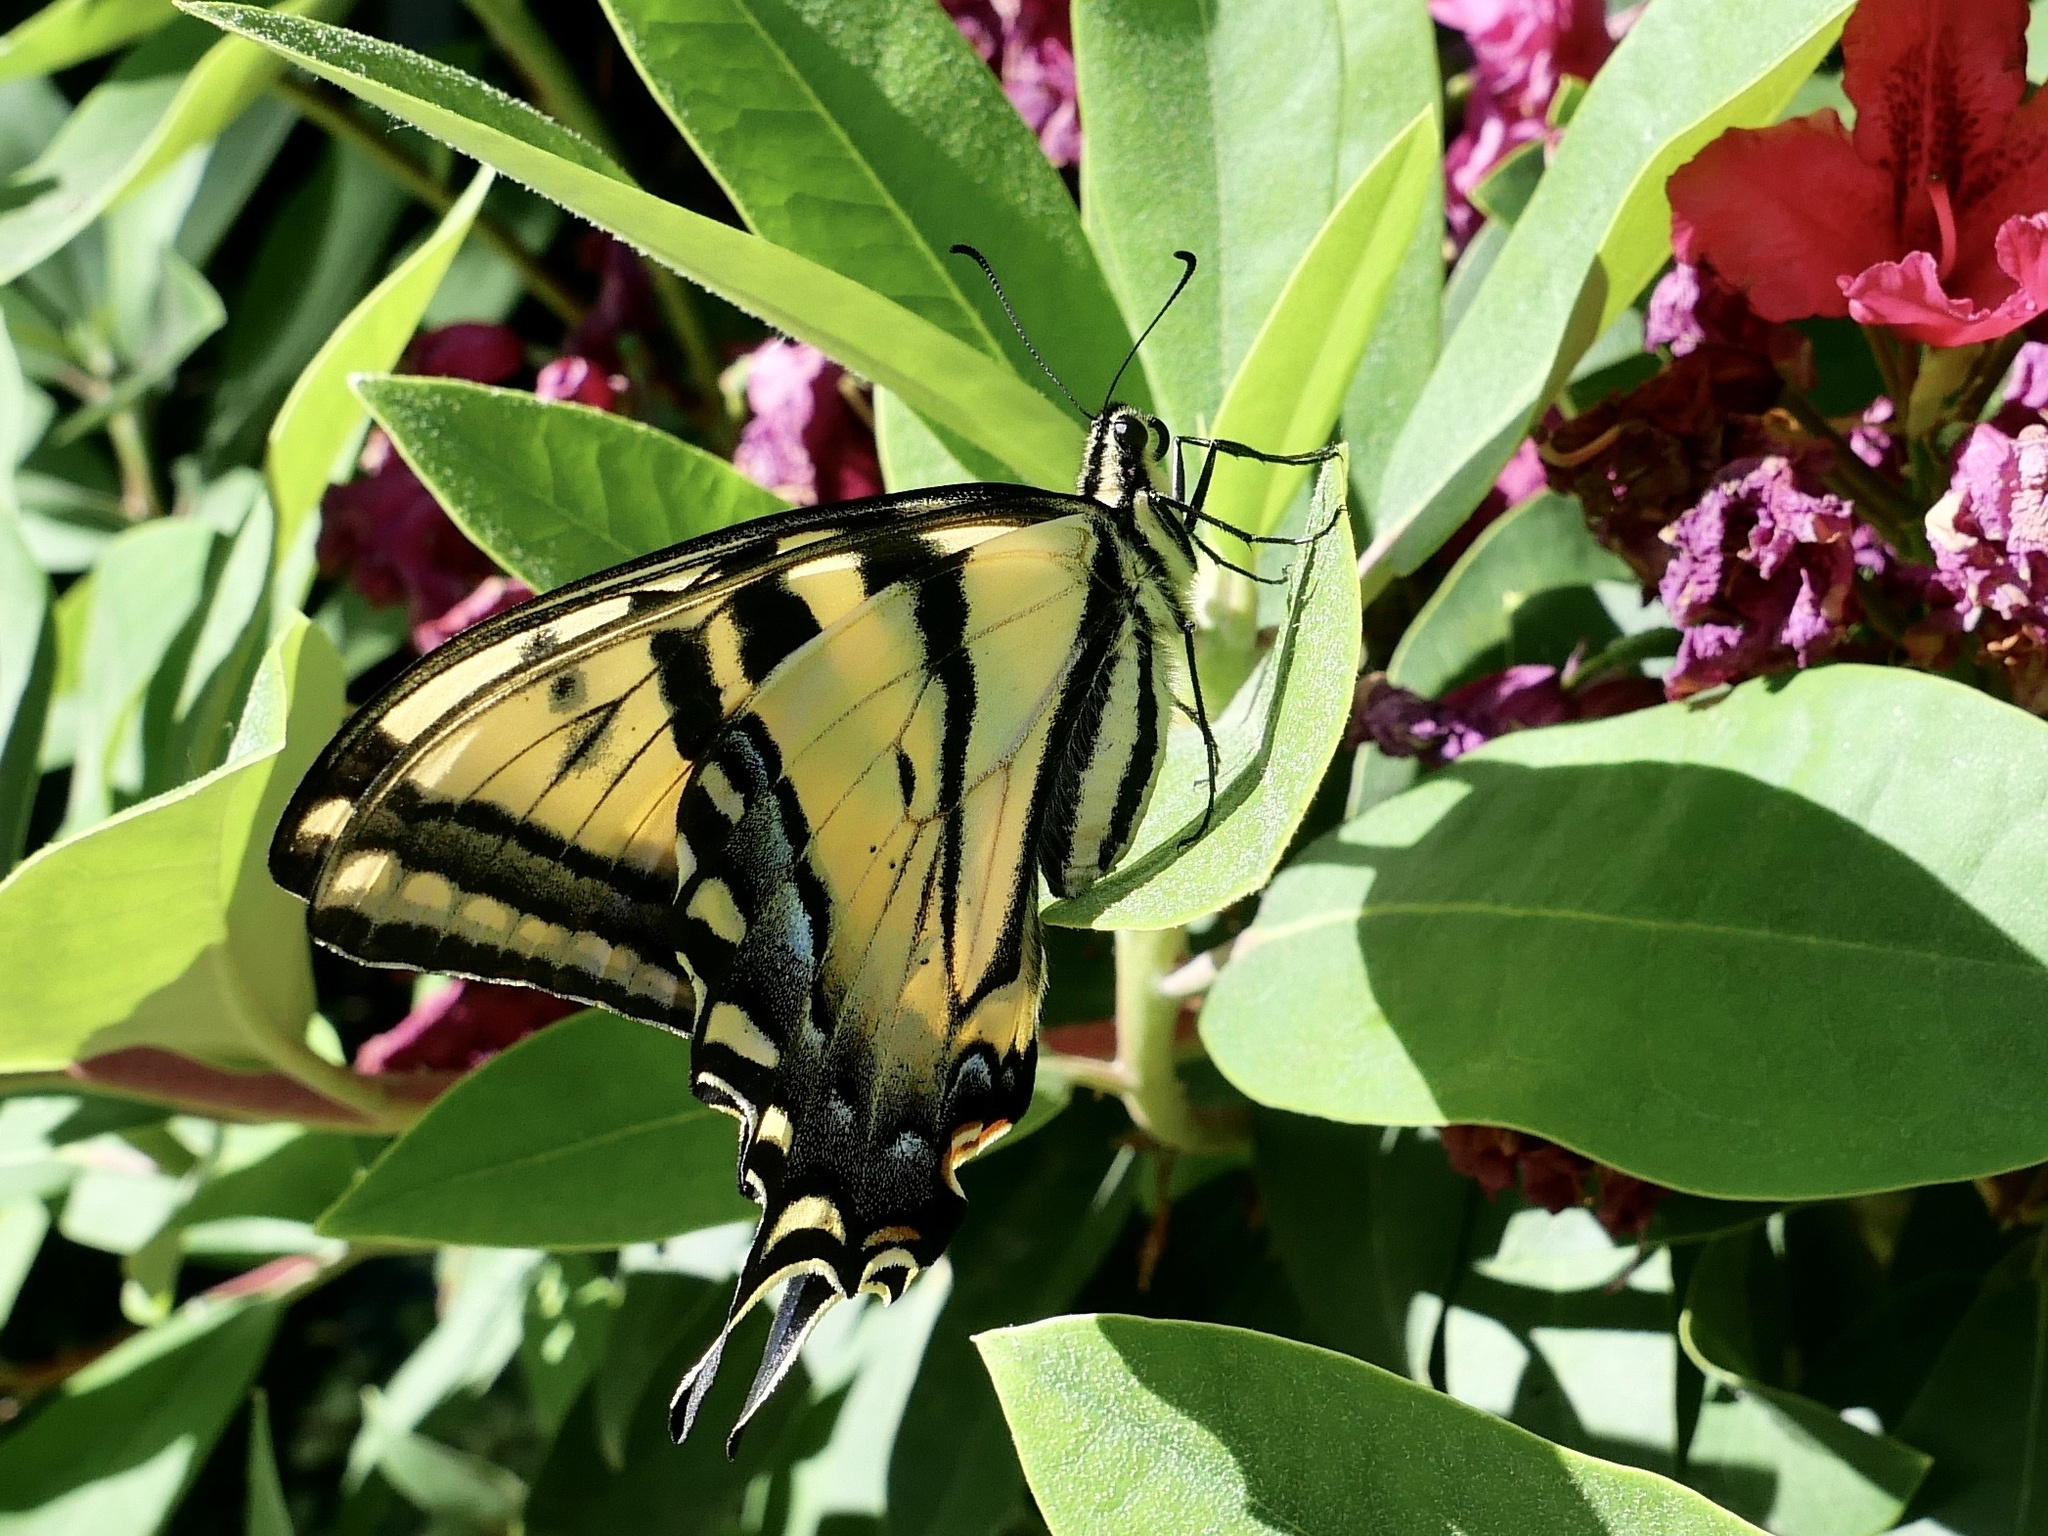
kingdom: Animalia
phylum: Arthropoda
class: Insecta
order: Lepidoptera
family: Papilionidae
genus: Papilio
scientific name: Papilio rutulus
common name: Western tiger swallowtail
